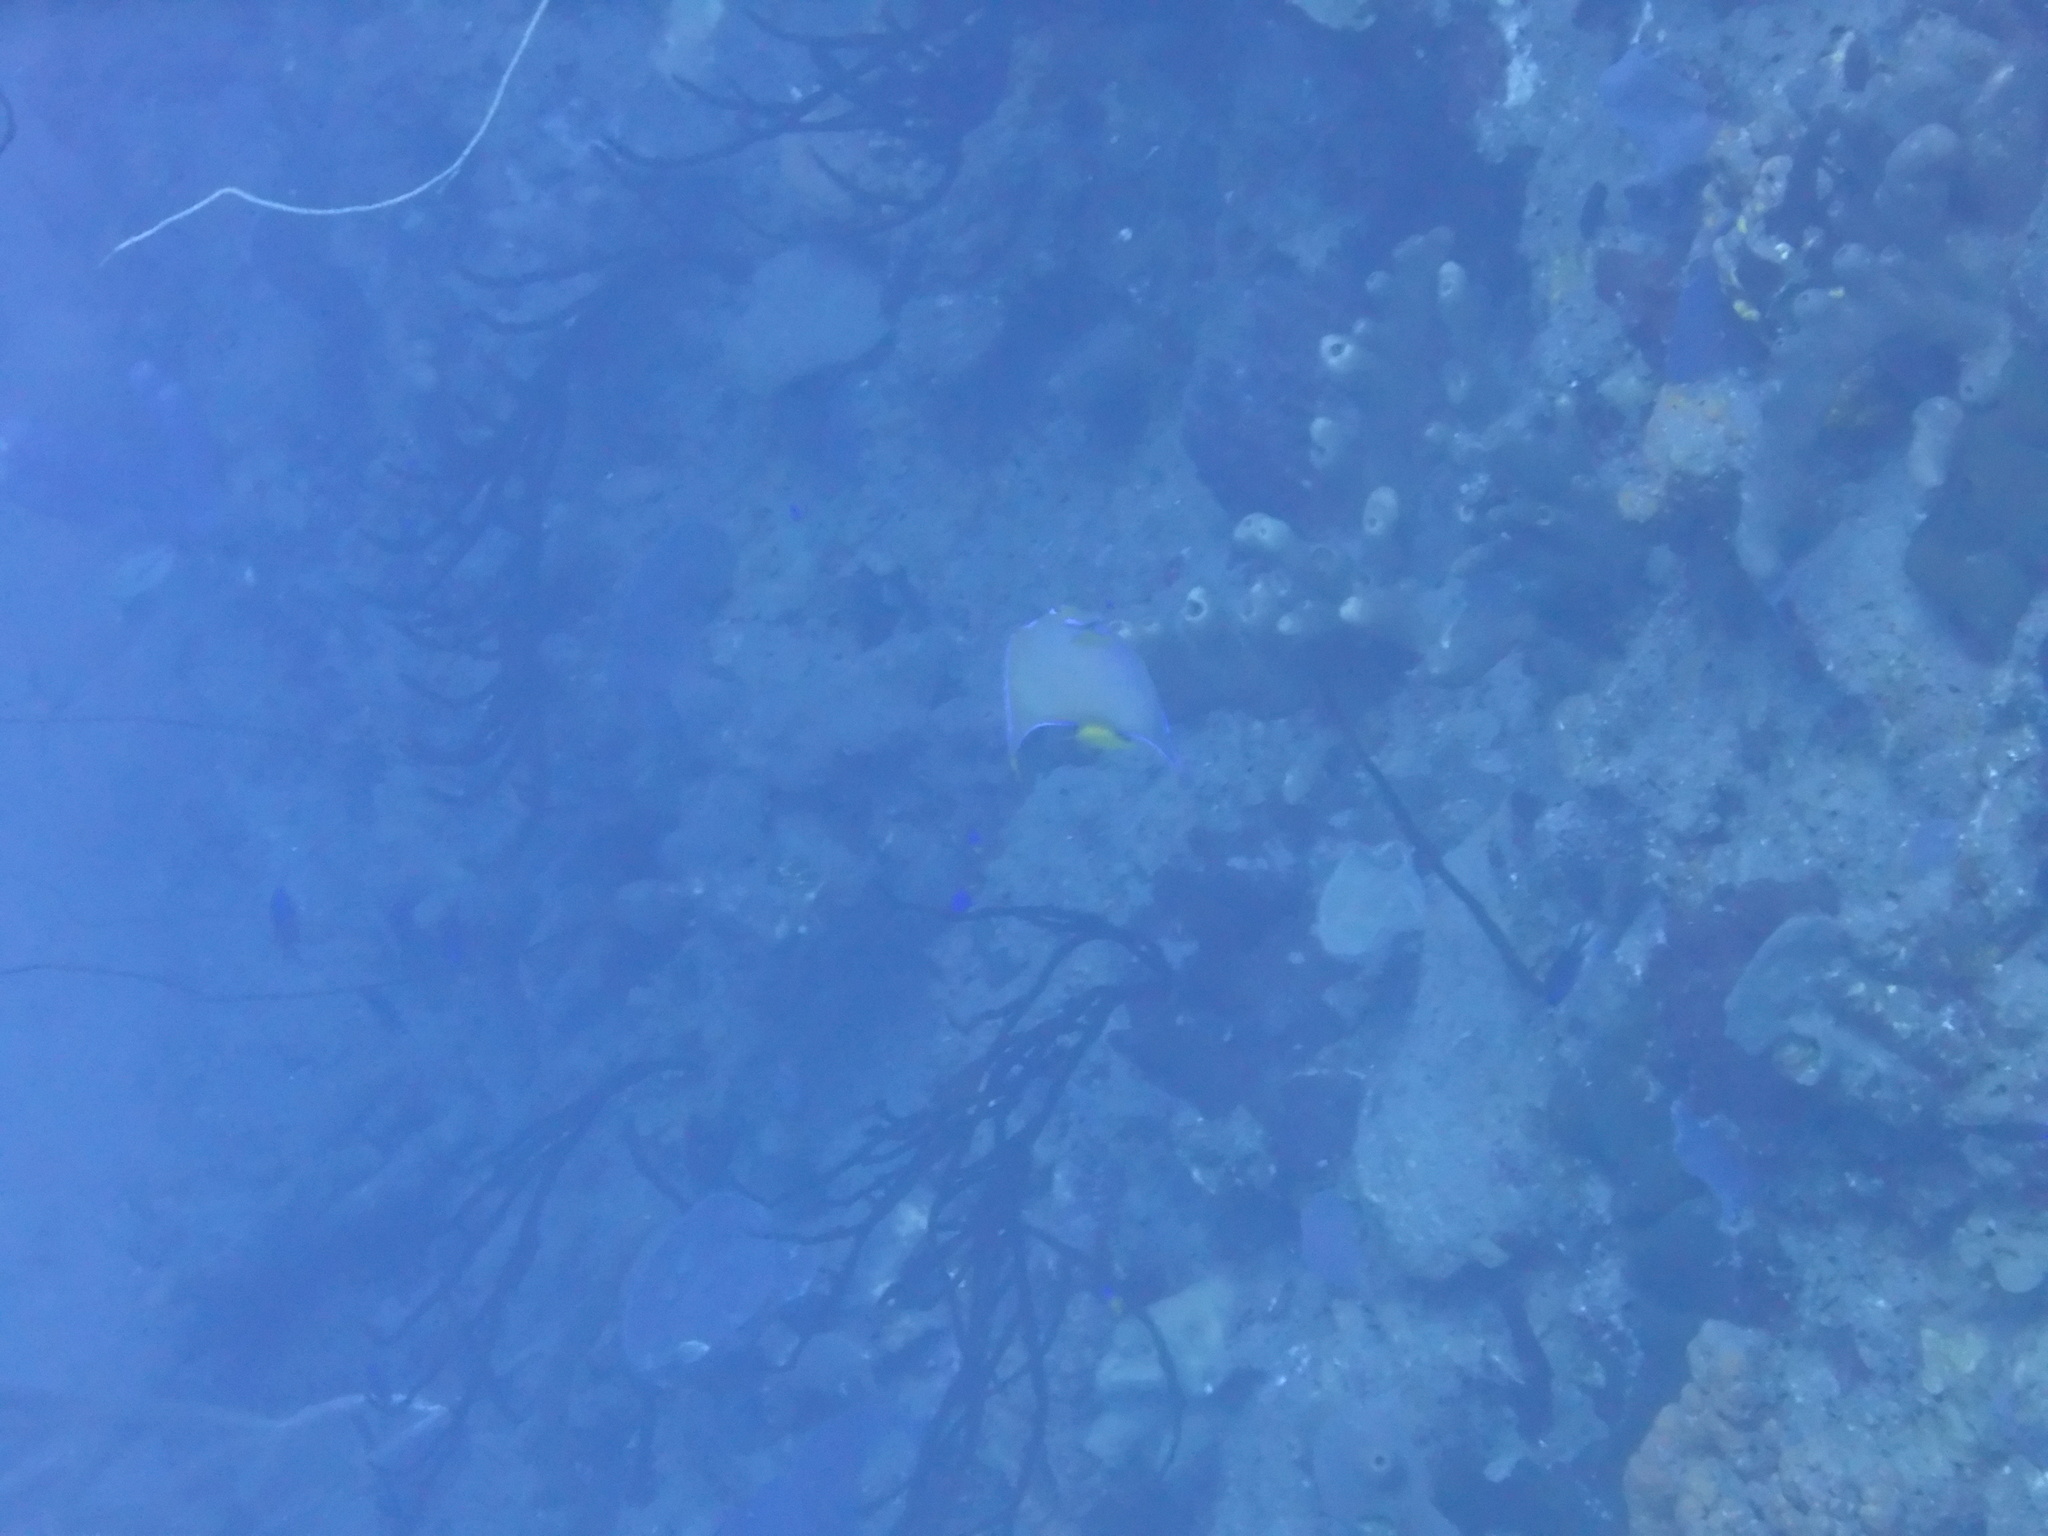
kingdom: Animalia
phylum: Chordata
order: Perciformes
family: Pomacanthidae
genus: Holacanthus
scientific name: Holacanthus ciliaris
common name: Queen angelfish
